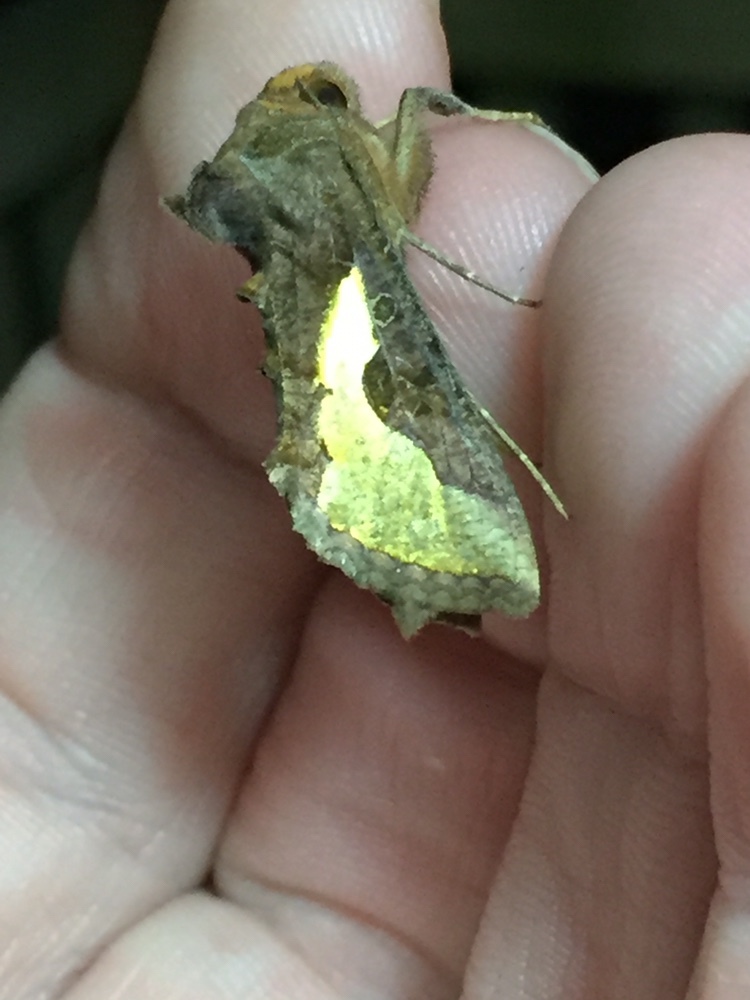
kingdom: Animalia
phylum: Arthropoda
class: Insecta
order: Lepidoptera
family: Noctuidae
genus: Thysanoplusia
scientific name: Thysanoplusia orichalcea
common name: Slender burnished brass, golden plusia
